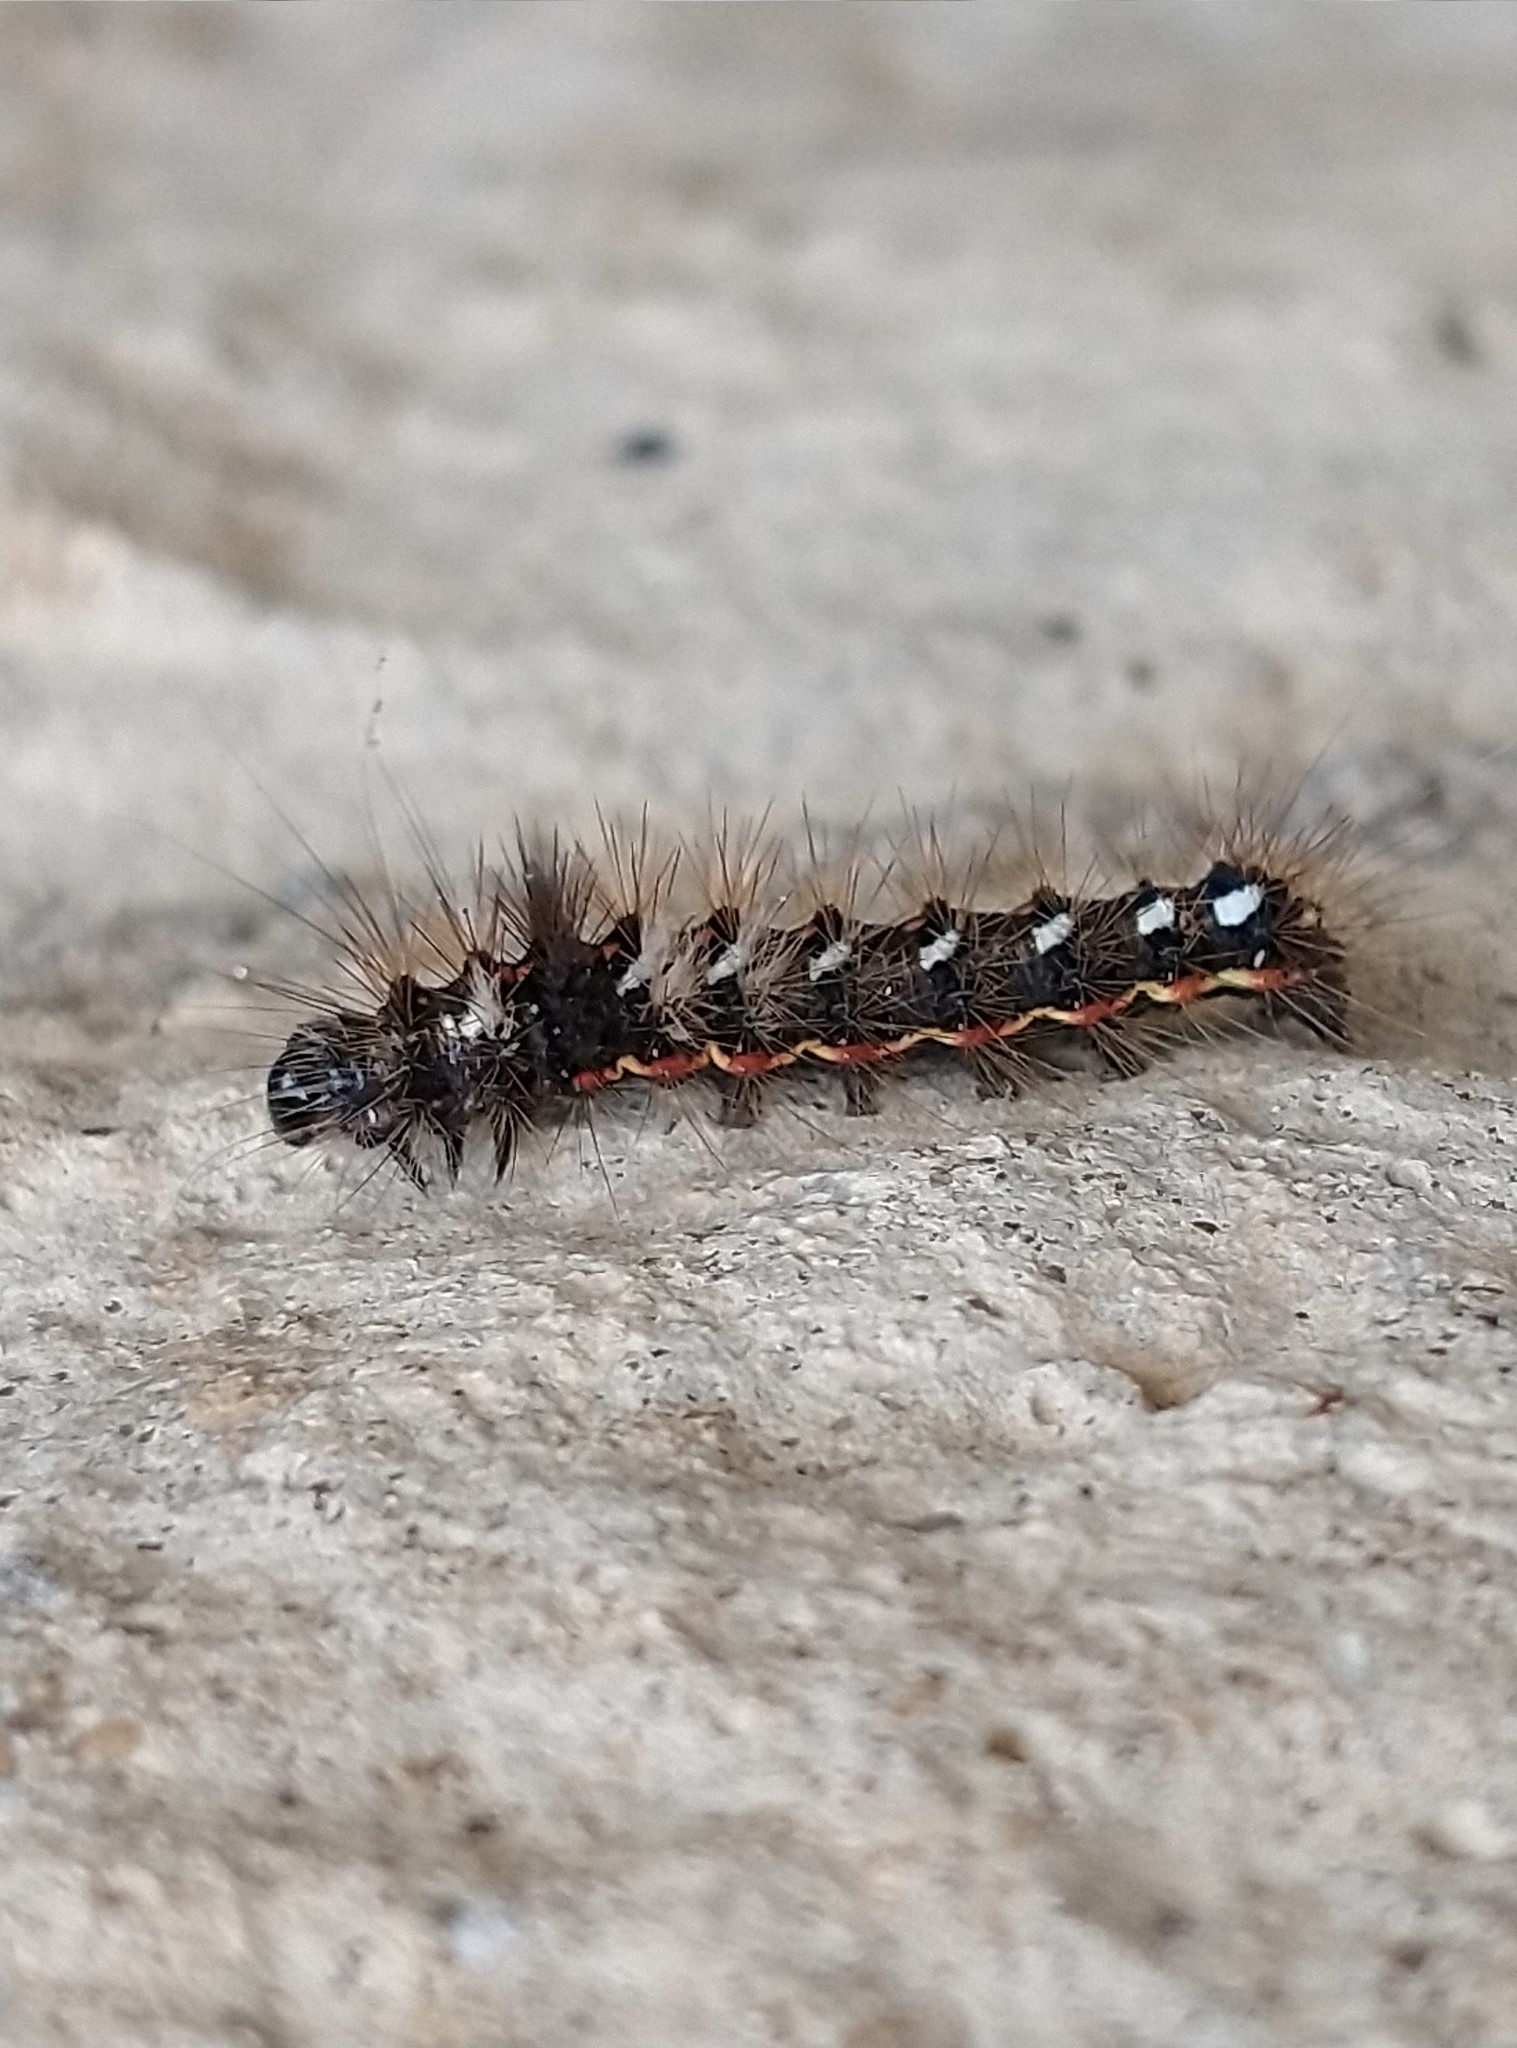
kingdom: Animalia
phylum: Arthropoda
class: Insecta
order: Lepidoptera
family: Noctuidae
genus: Acronicta
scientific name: Acronicta rumicis
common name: Knot grass
